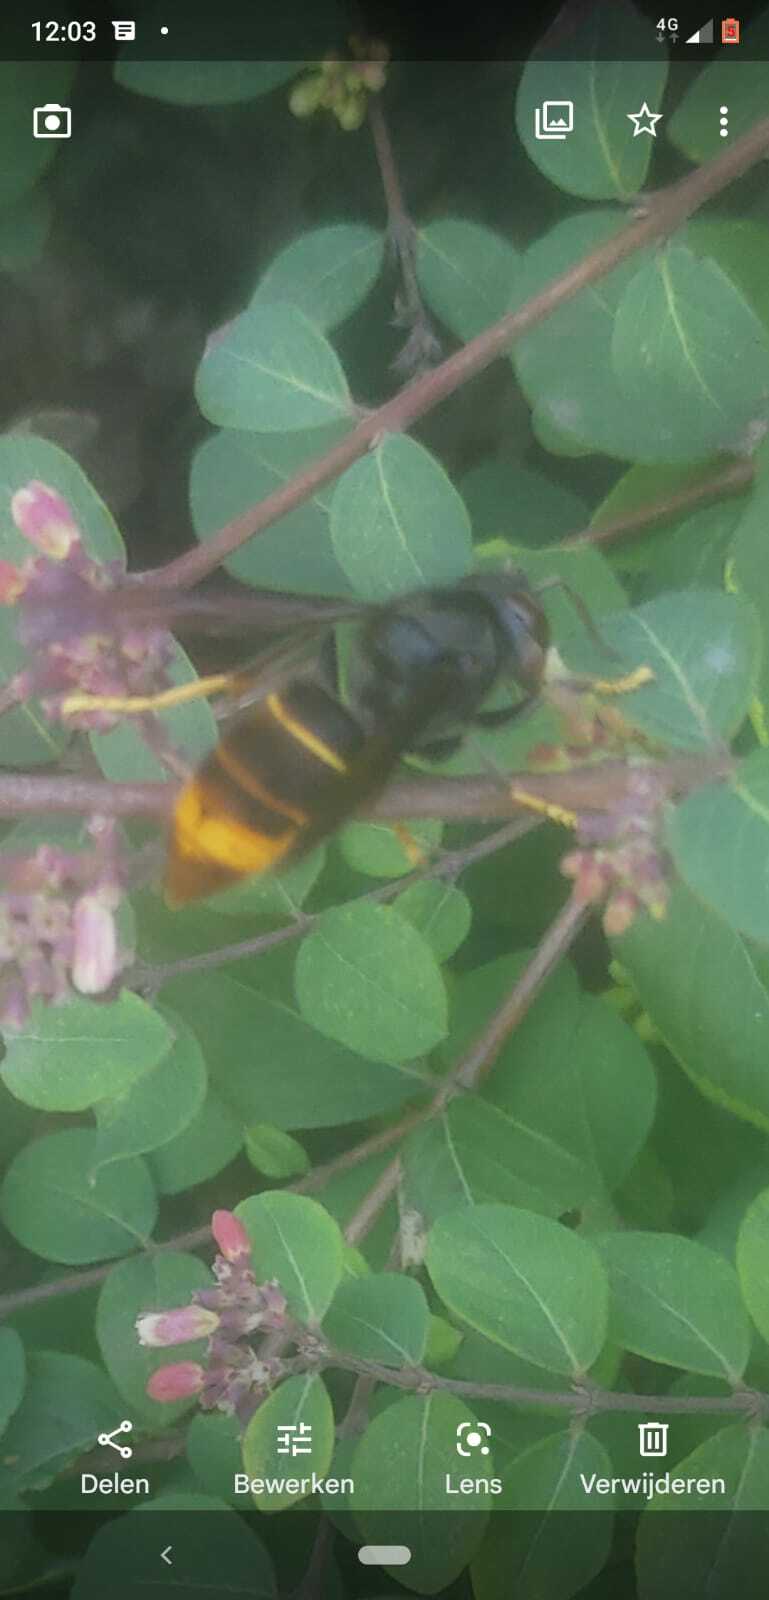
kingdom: Animalia
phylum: Arthropoda
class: Insecta
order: Hymenoptera
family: Vespidae
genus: Vespa
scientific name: Vespa velutina
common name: Asian hornet
